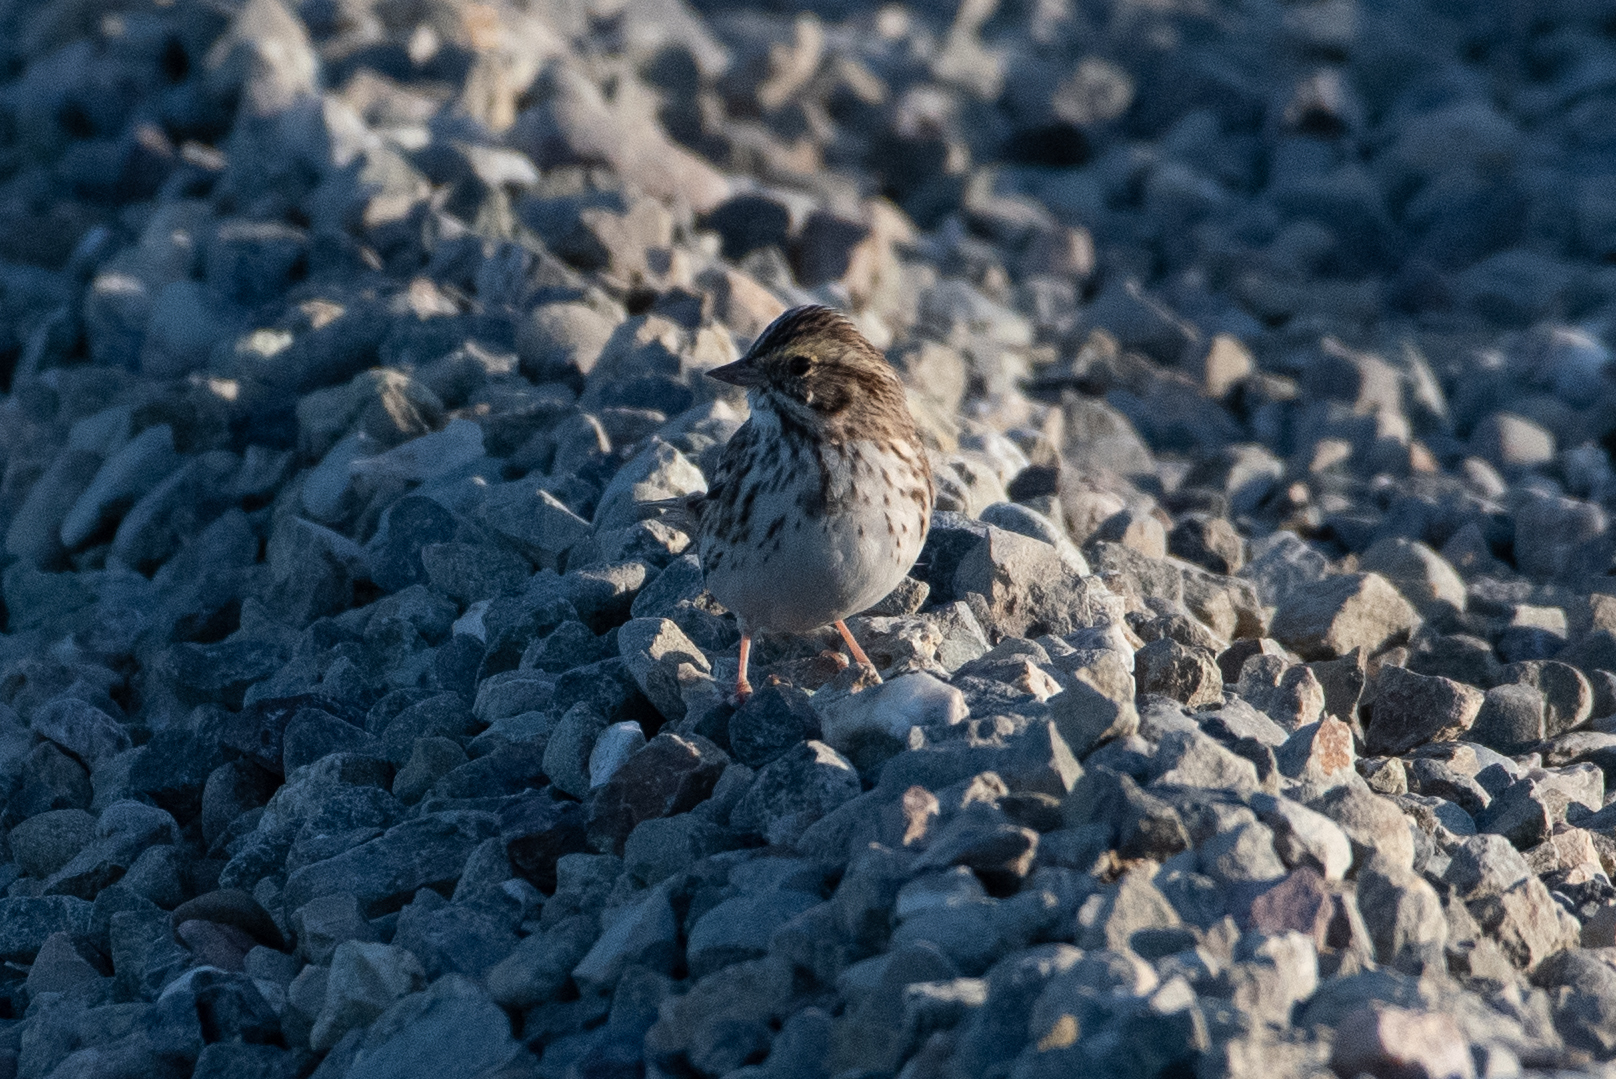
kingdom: Animalia
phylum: Chordata
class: Aves
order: Passeriformes
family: Passerellidae
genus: Passerculus
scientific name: Passerculus sandwichensis
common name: Savannah sparrow
